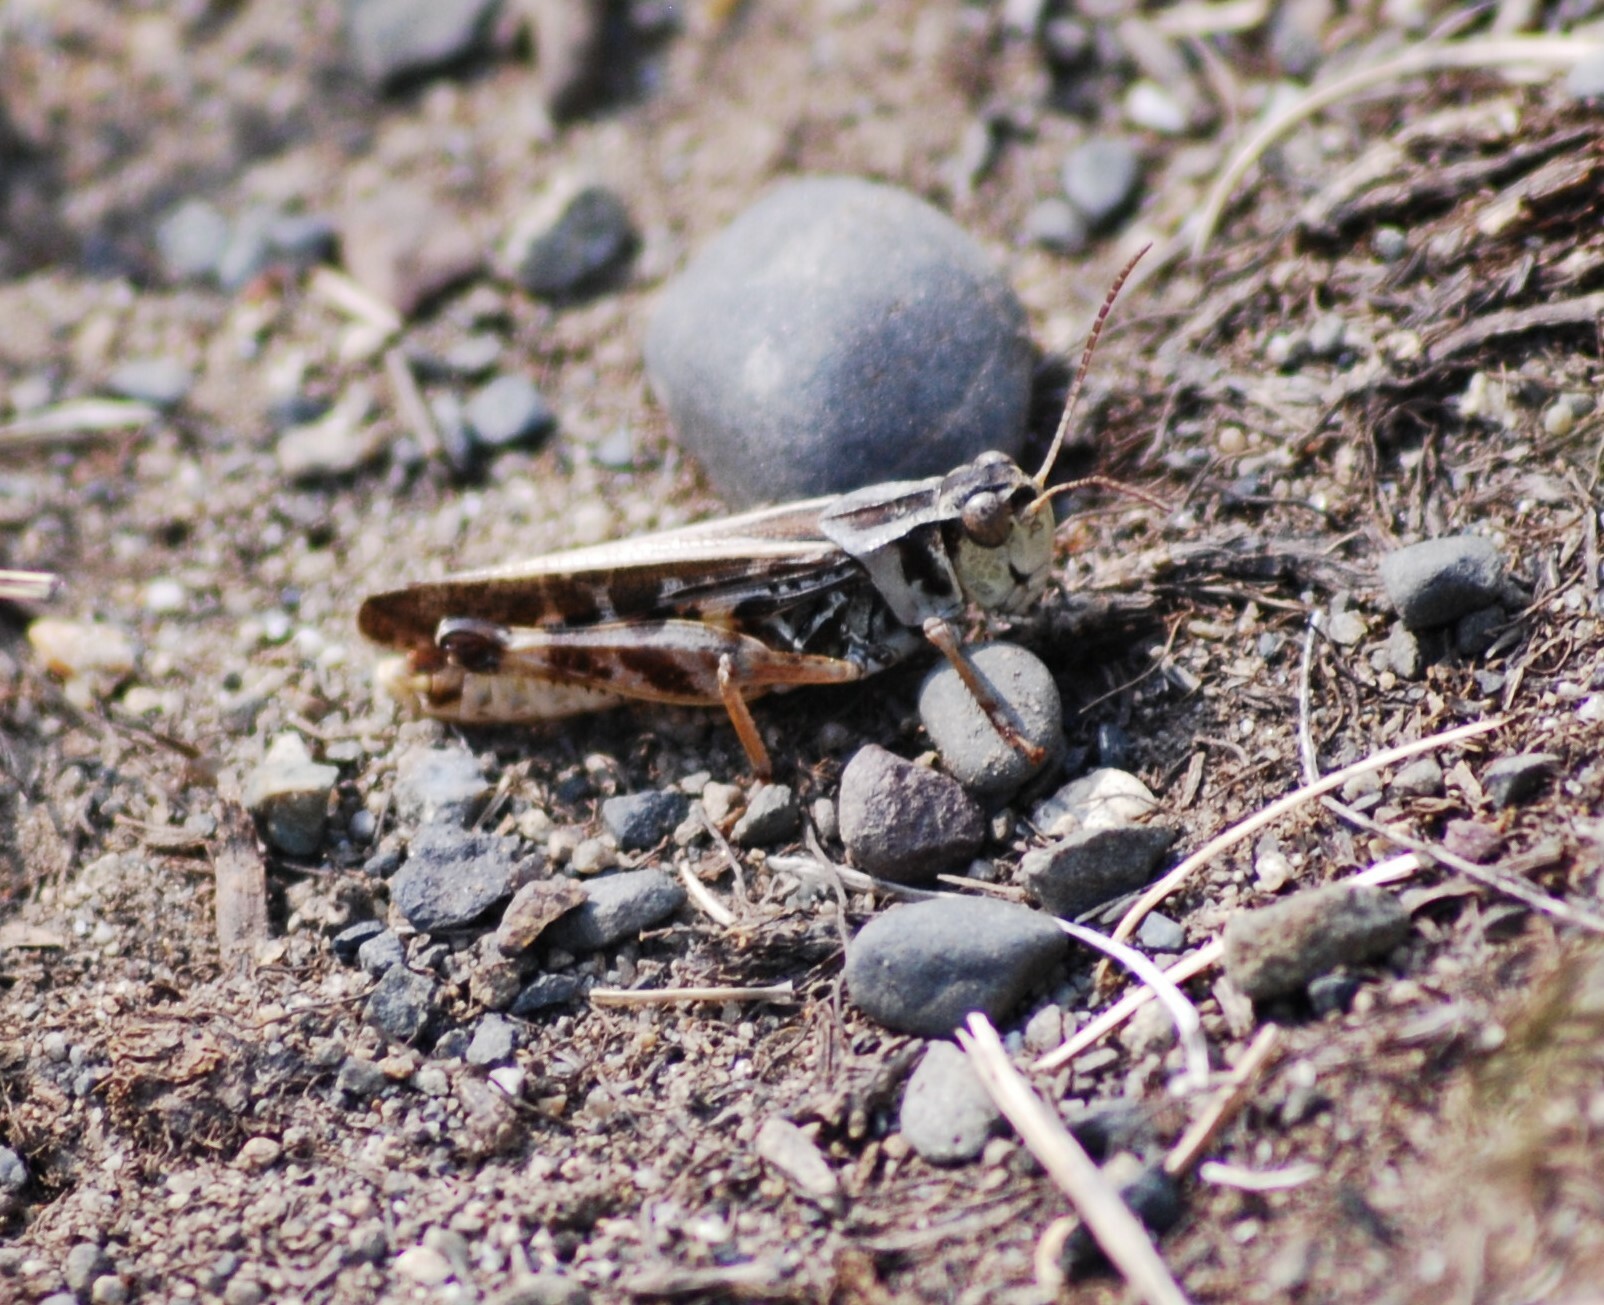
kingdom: Animalia
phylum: Arthropoda
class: Insecta
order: Orthoptera
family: Acrididae
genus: Camnula
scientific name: Camnula pellucida
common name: Clear-winged grasshopper
